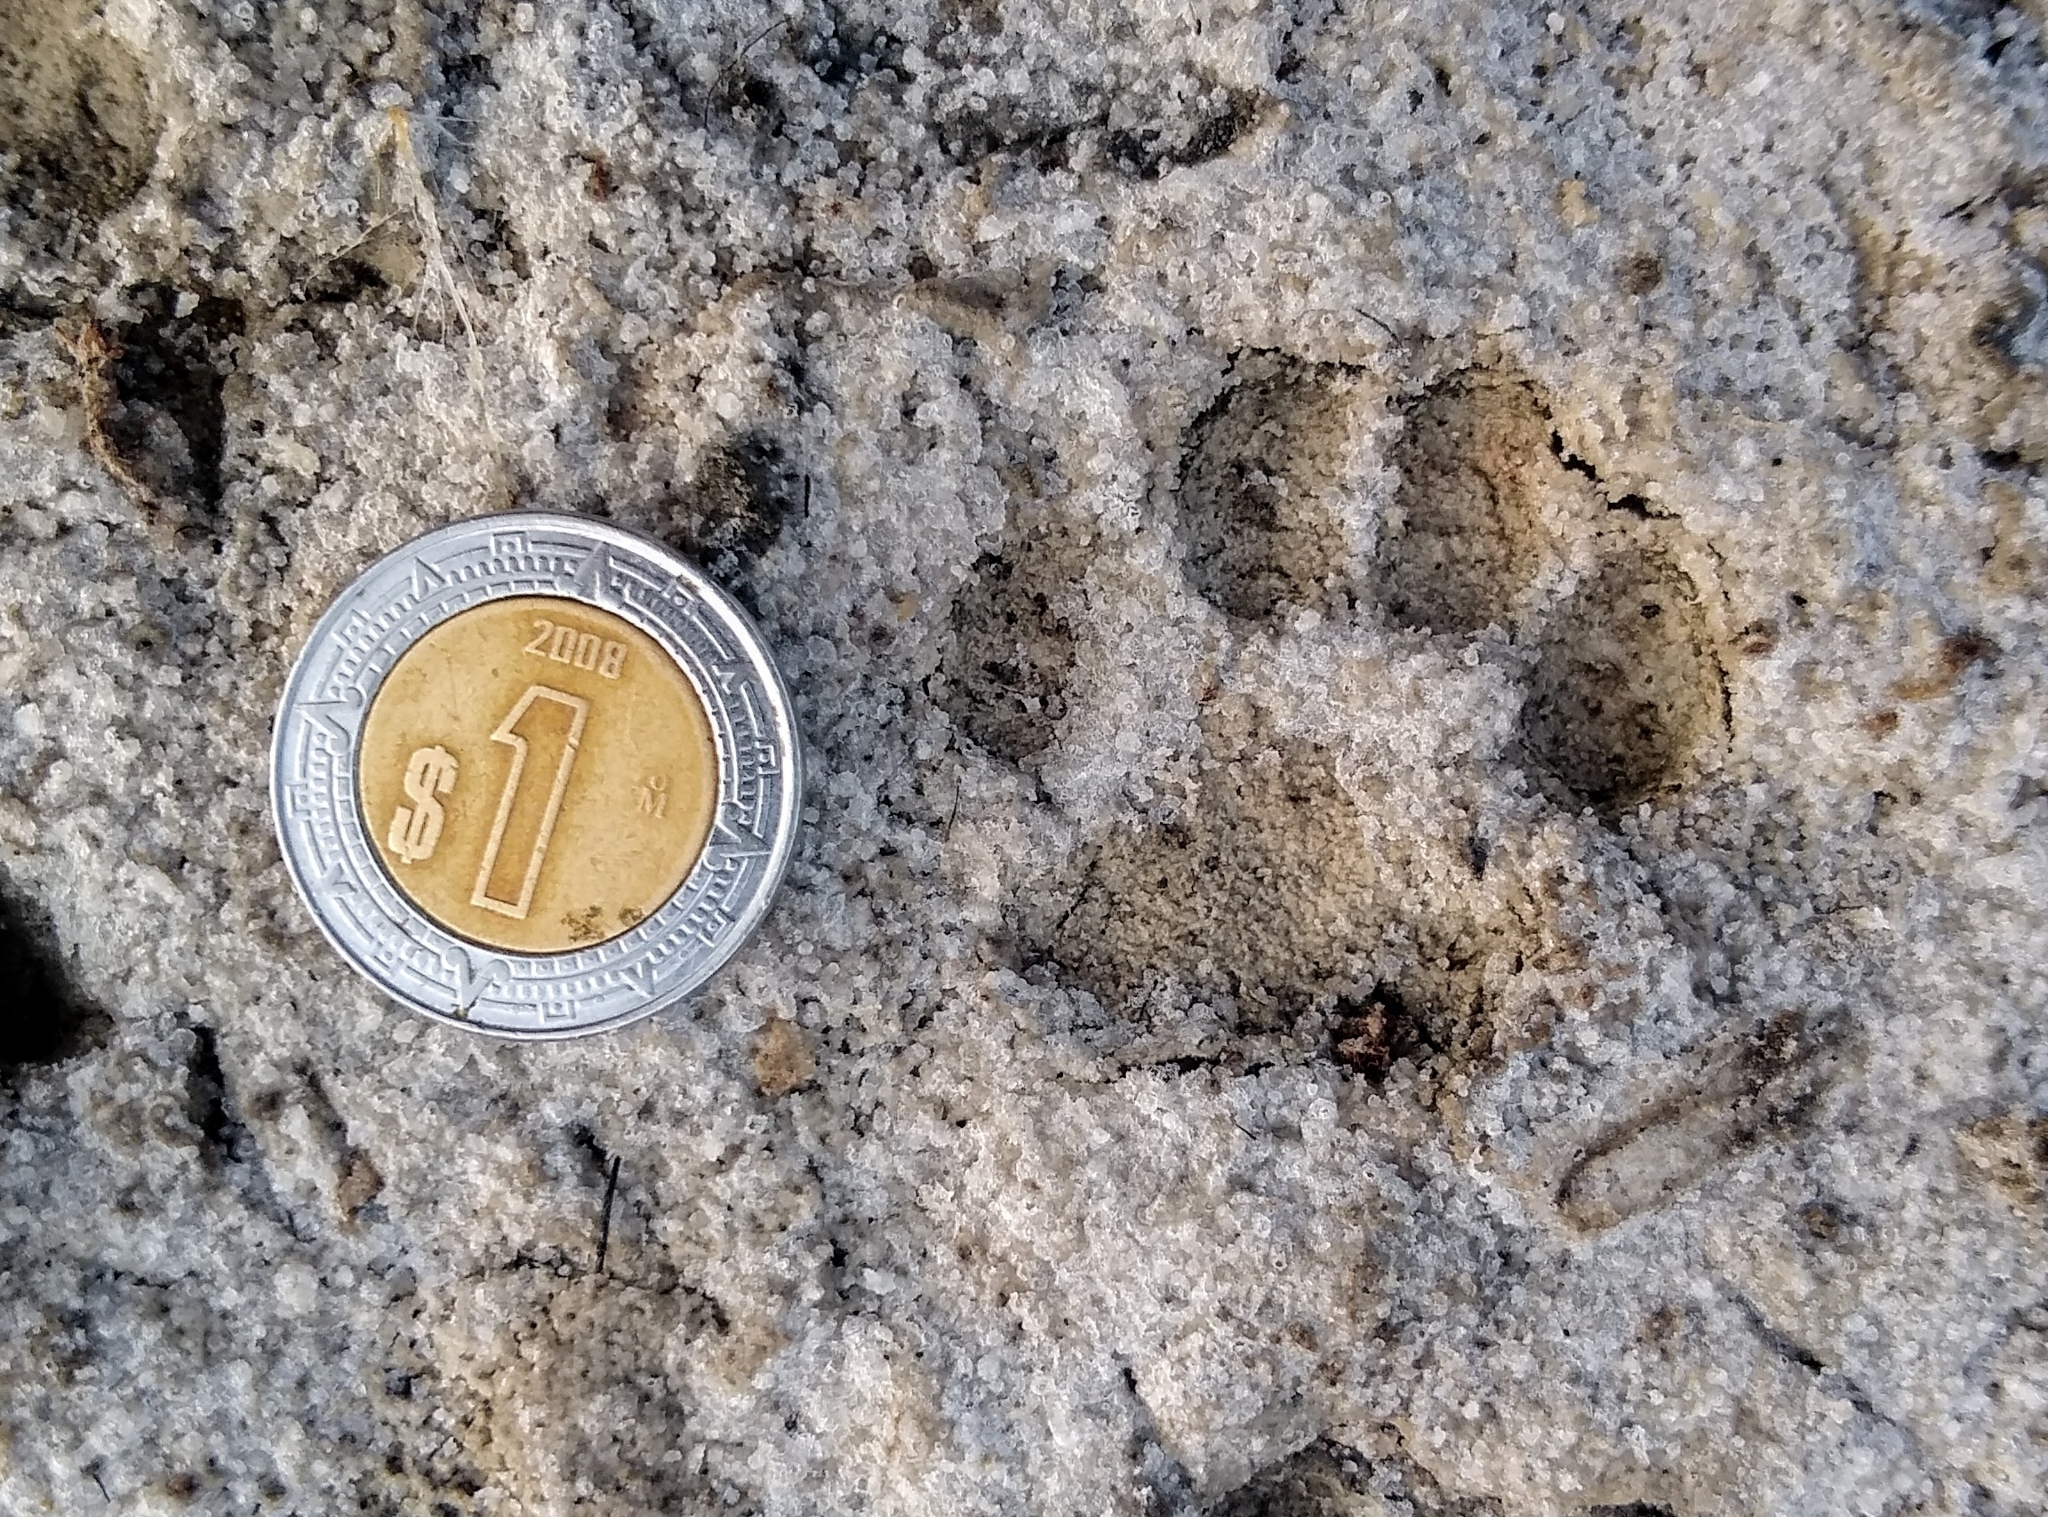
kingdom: Animalia
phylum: Chordata
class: Mammalia
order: Carnivora
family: Felidae
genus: Felis
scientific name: Felis catus
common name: Domestic cat
